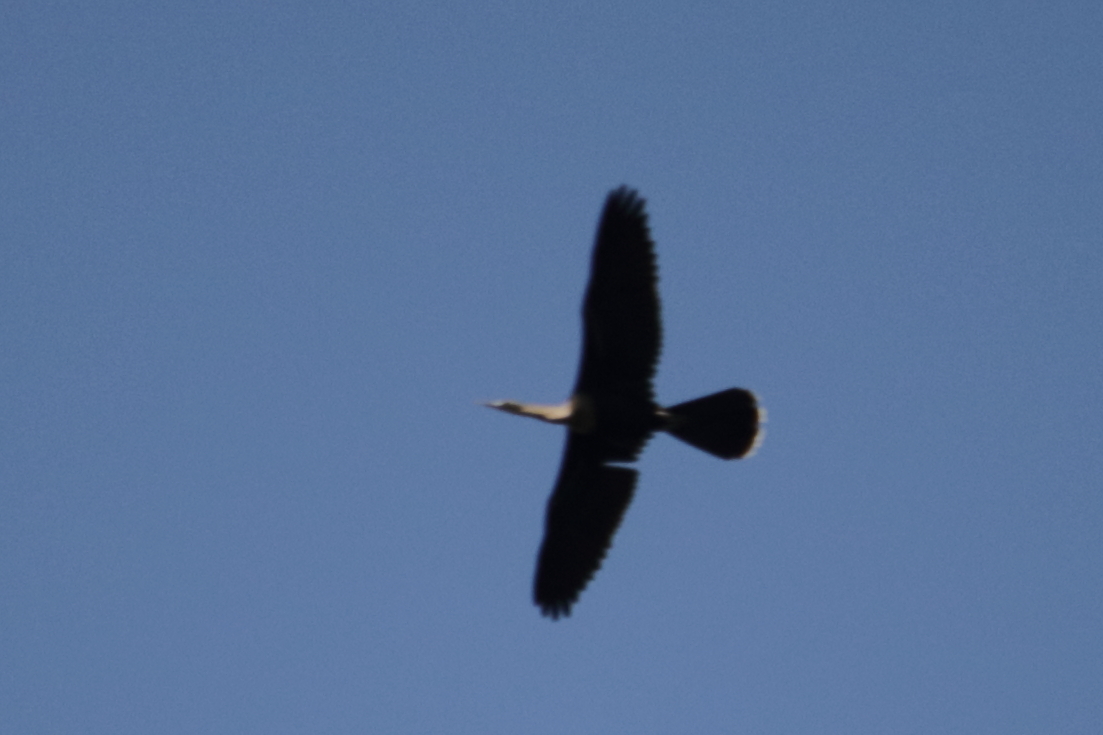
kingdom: Animalia
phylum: Chordata
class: Aves
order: Suliformes
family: Anhingidae
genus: Anhinga
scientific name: Anhinga anhinga
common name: Anhinga
